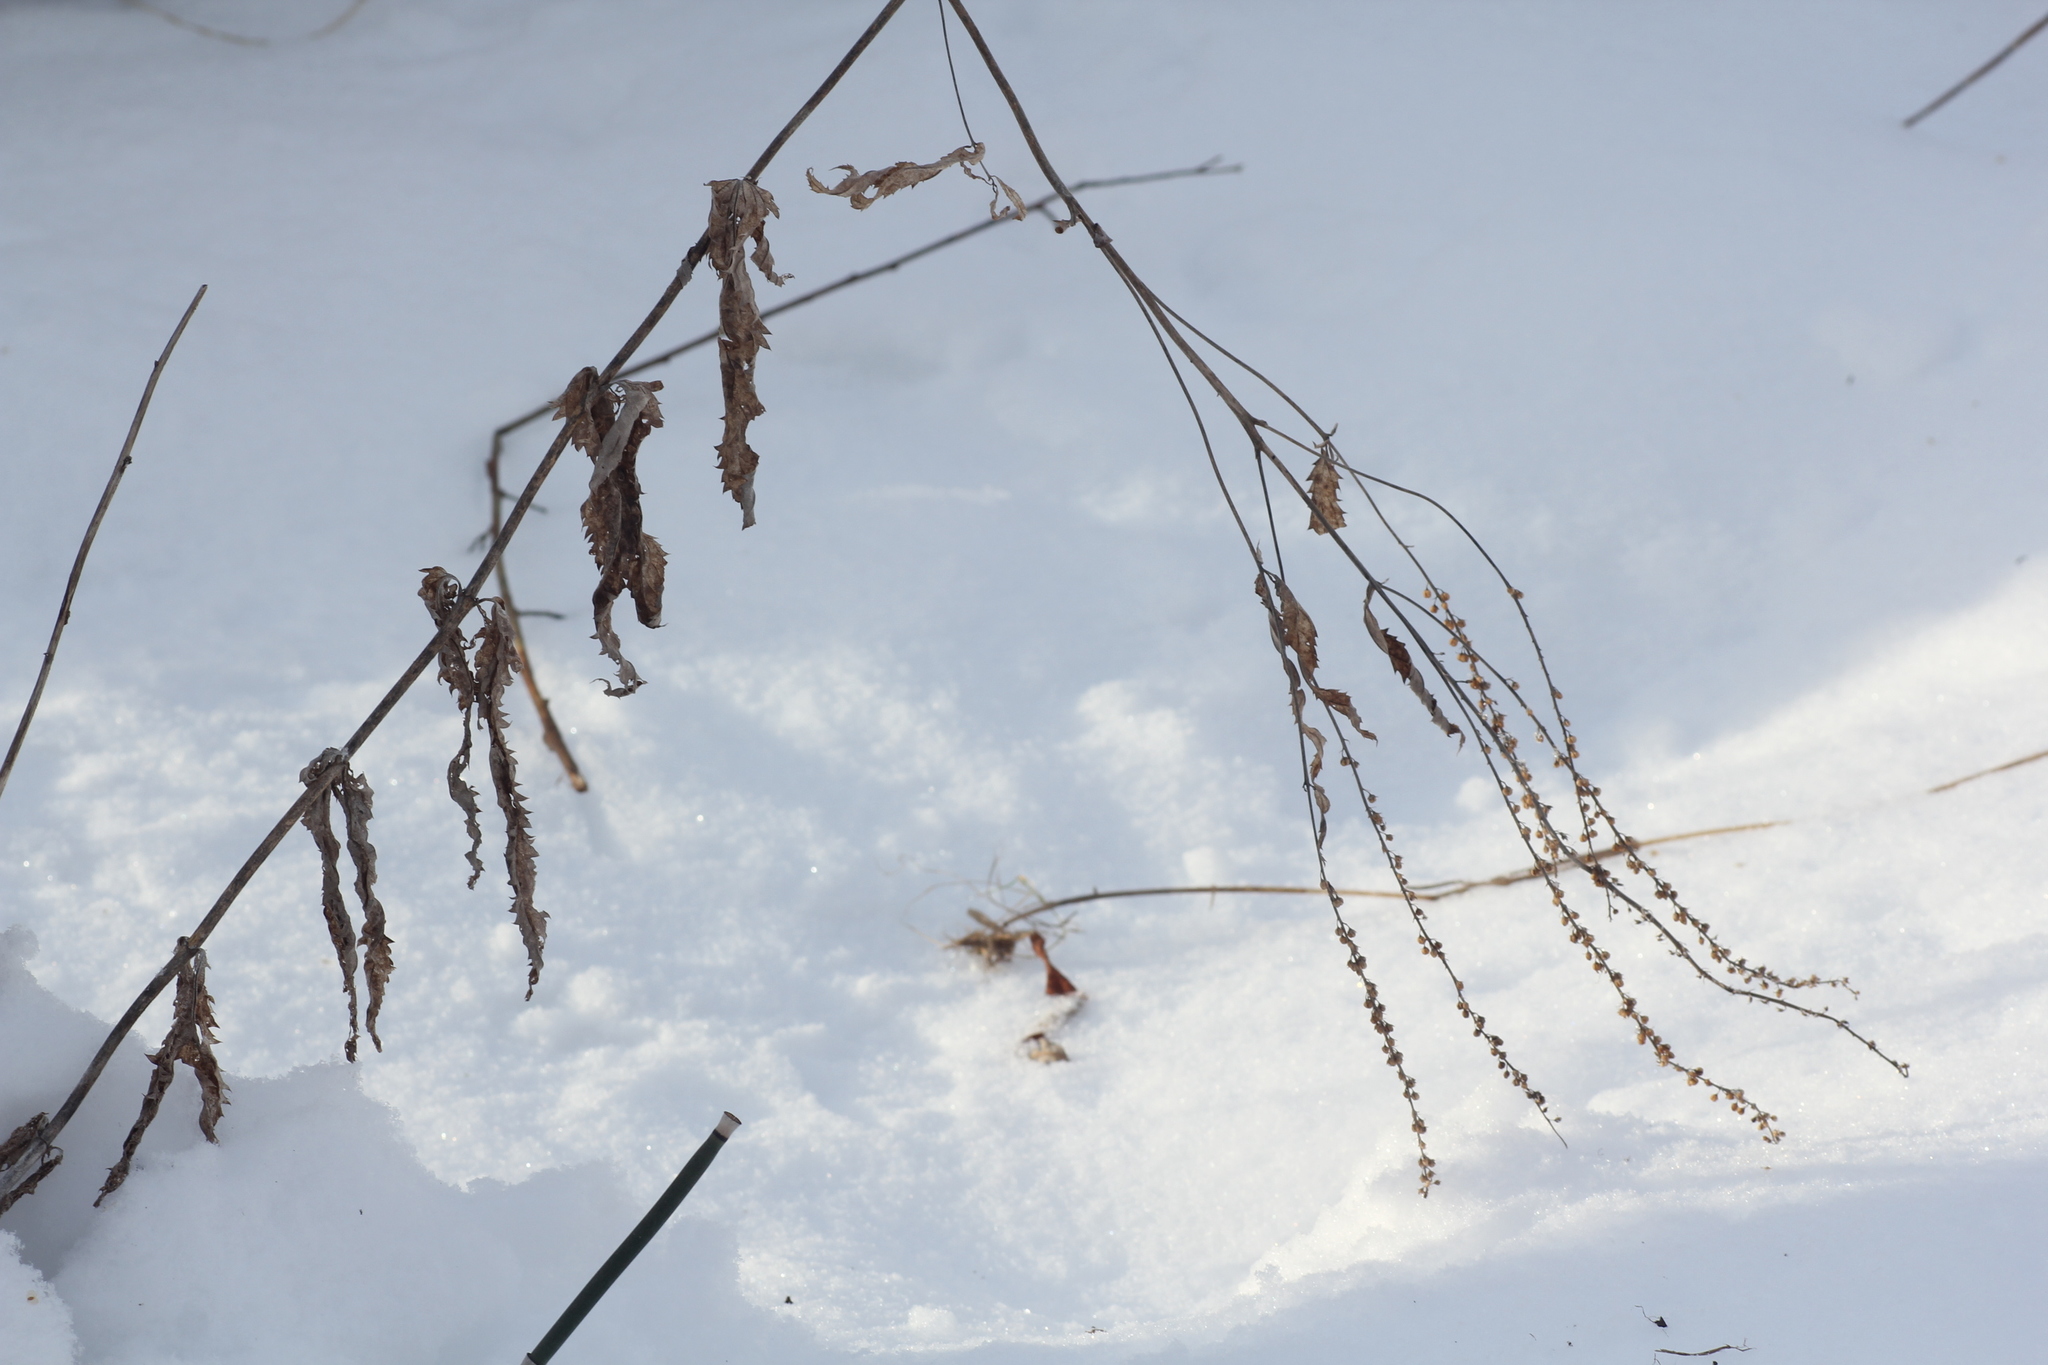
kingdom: Plantae
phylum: Tracheophyta
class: Magnoliopsida
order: Lamiales
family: Plantaginaceae
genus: Veronica
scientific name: Veronica longifolia
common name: Garden speedwell
